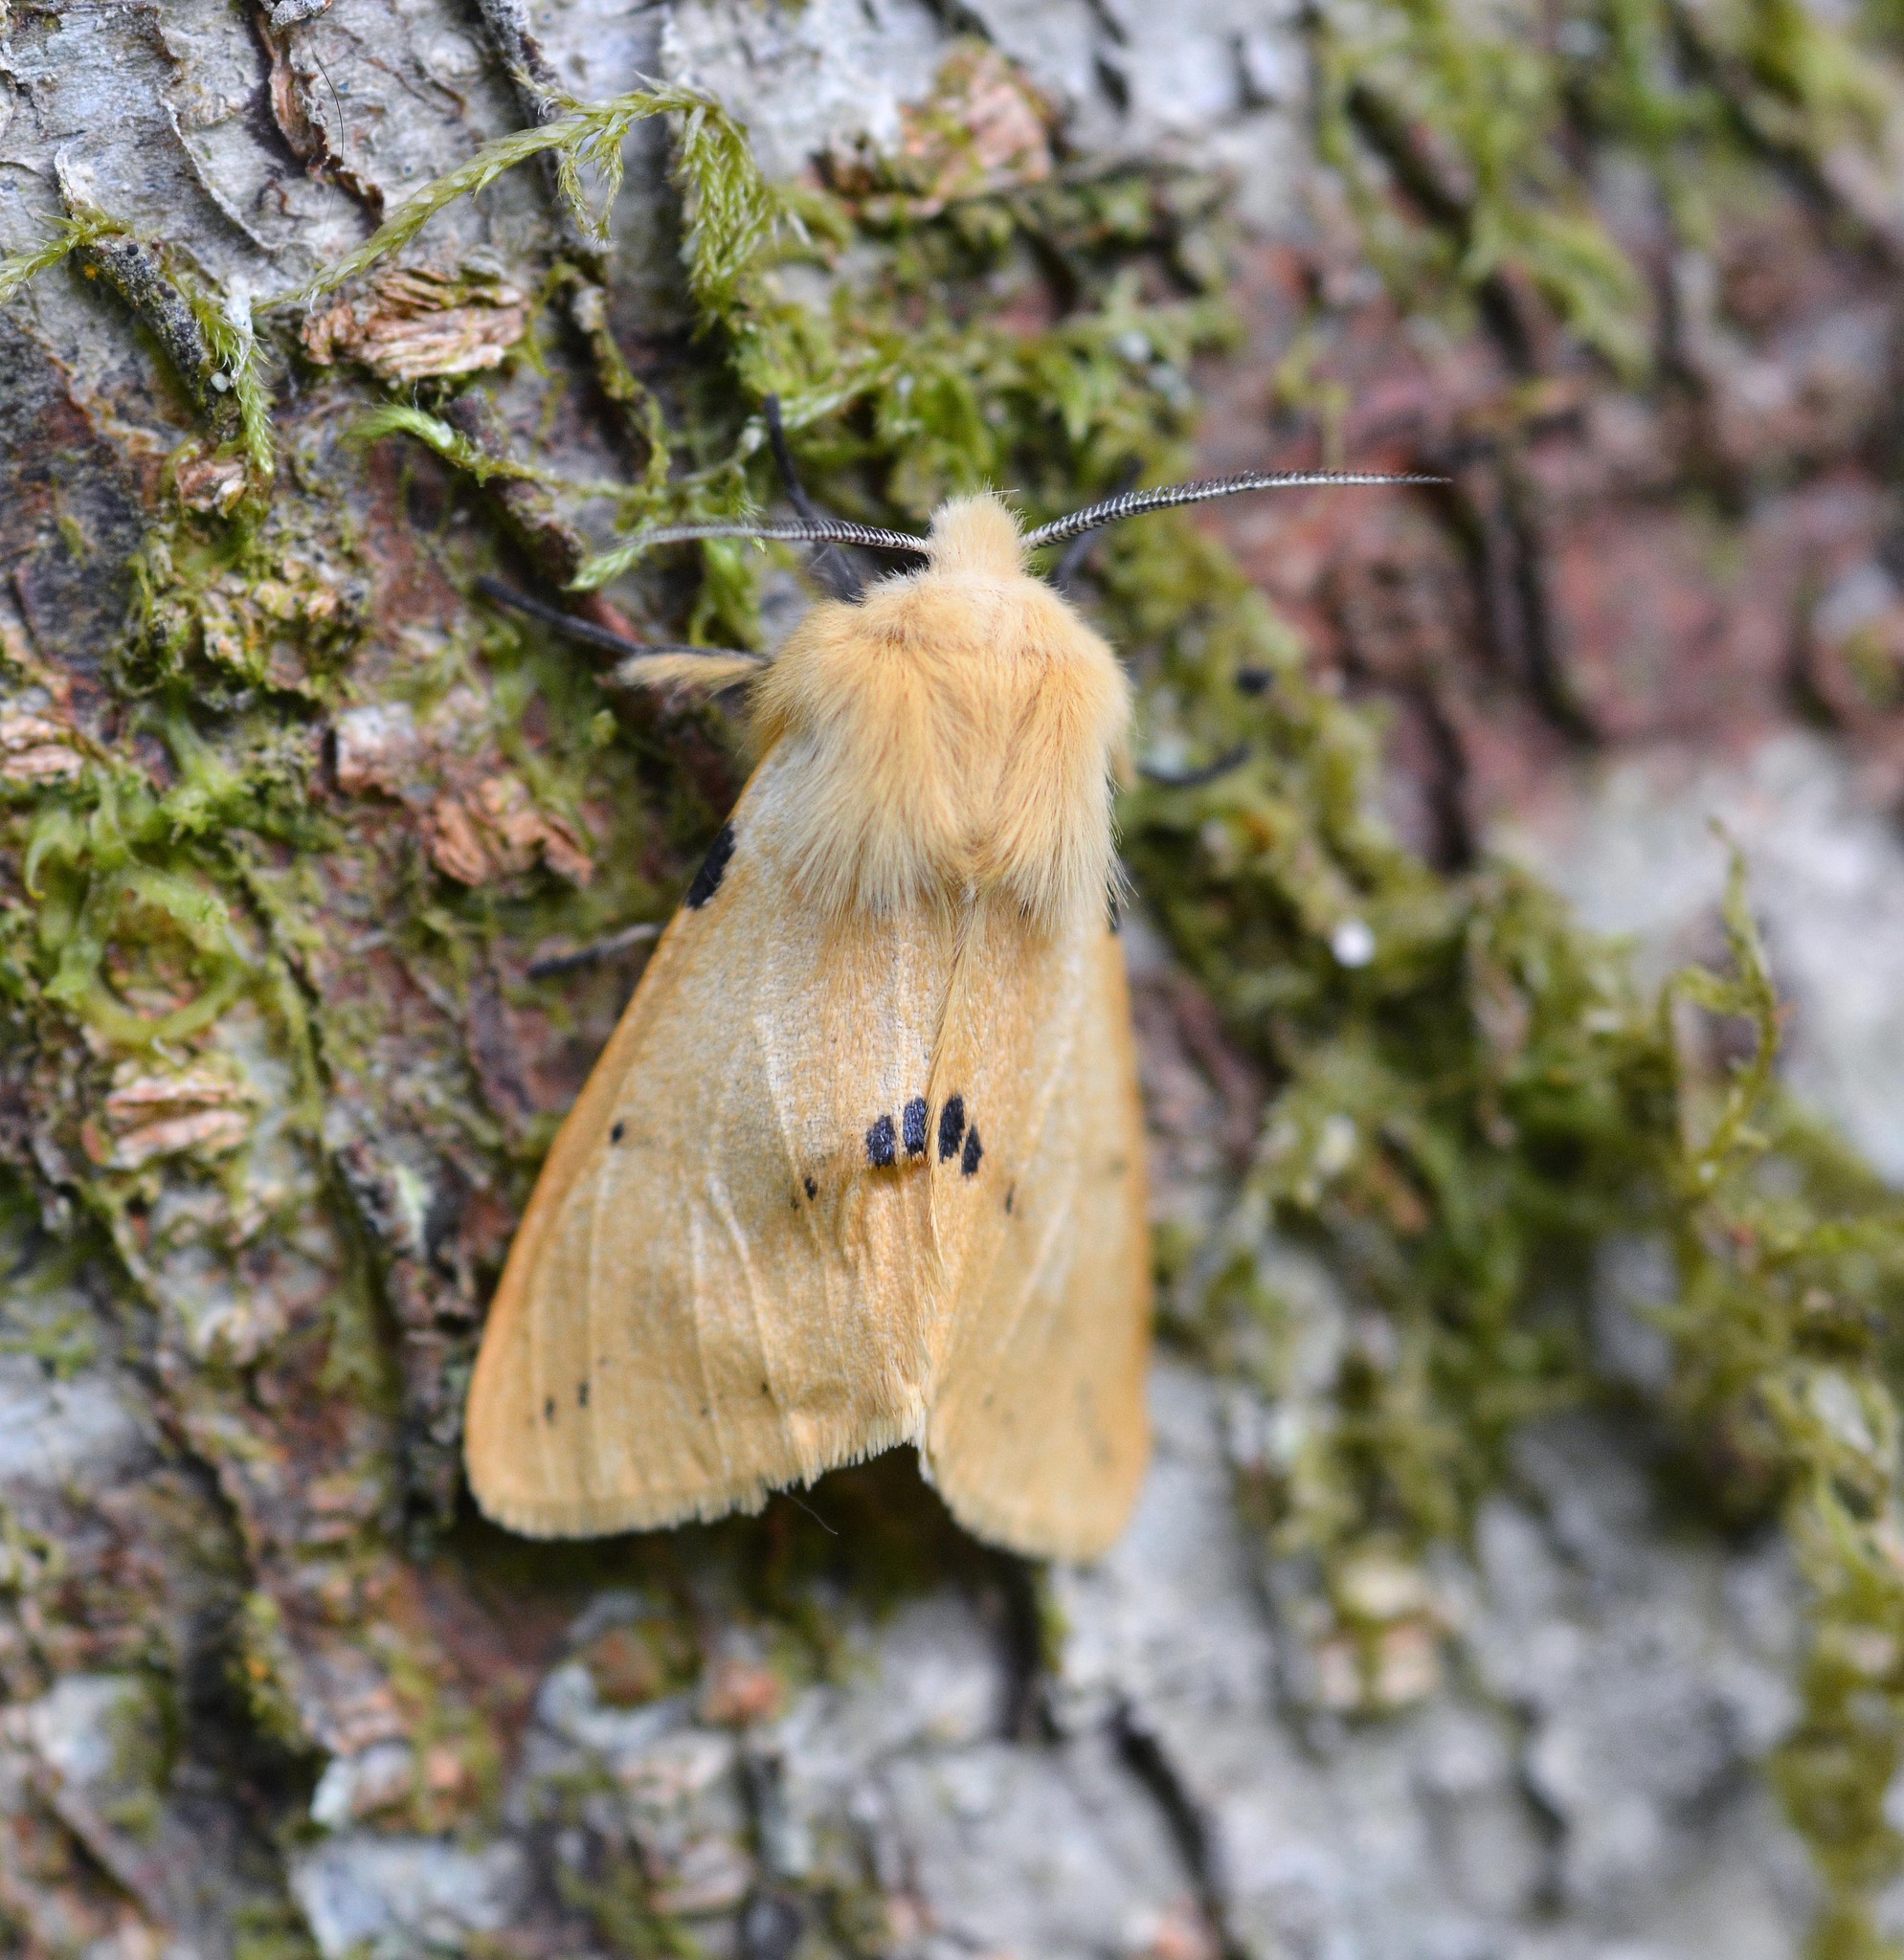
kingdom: Animalia
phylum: Arthropoda
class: Insecta
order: Lepidoptera
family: Erebidae
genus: Spilarctia
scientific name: Spilarctia lutea
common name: Buff ermine
